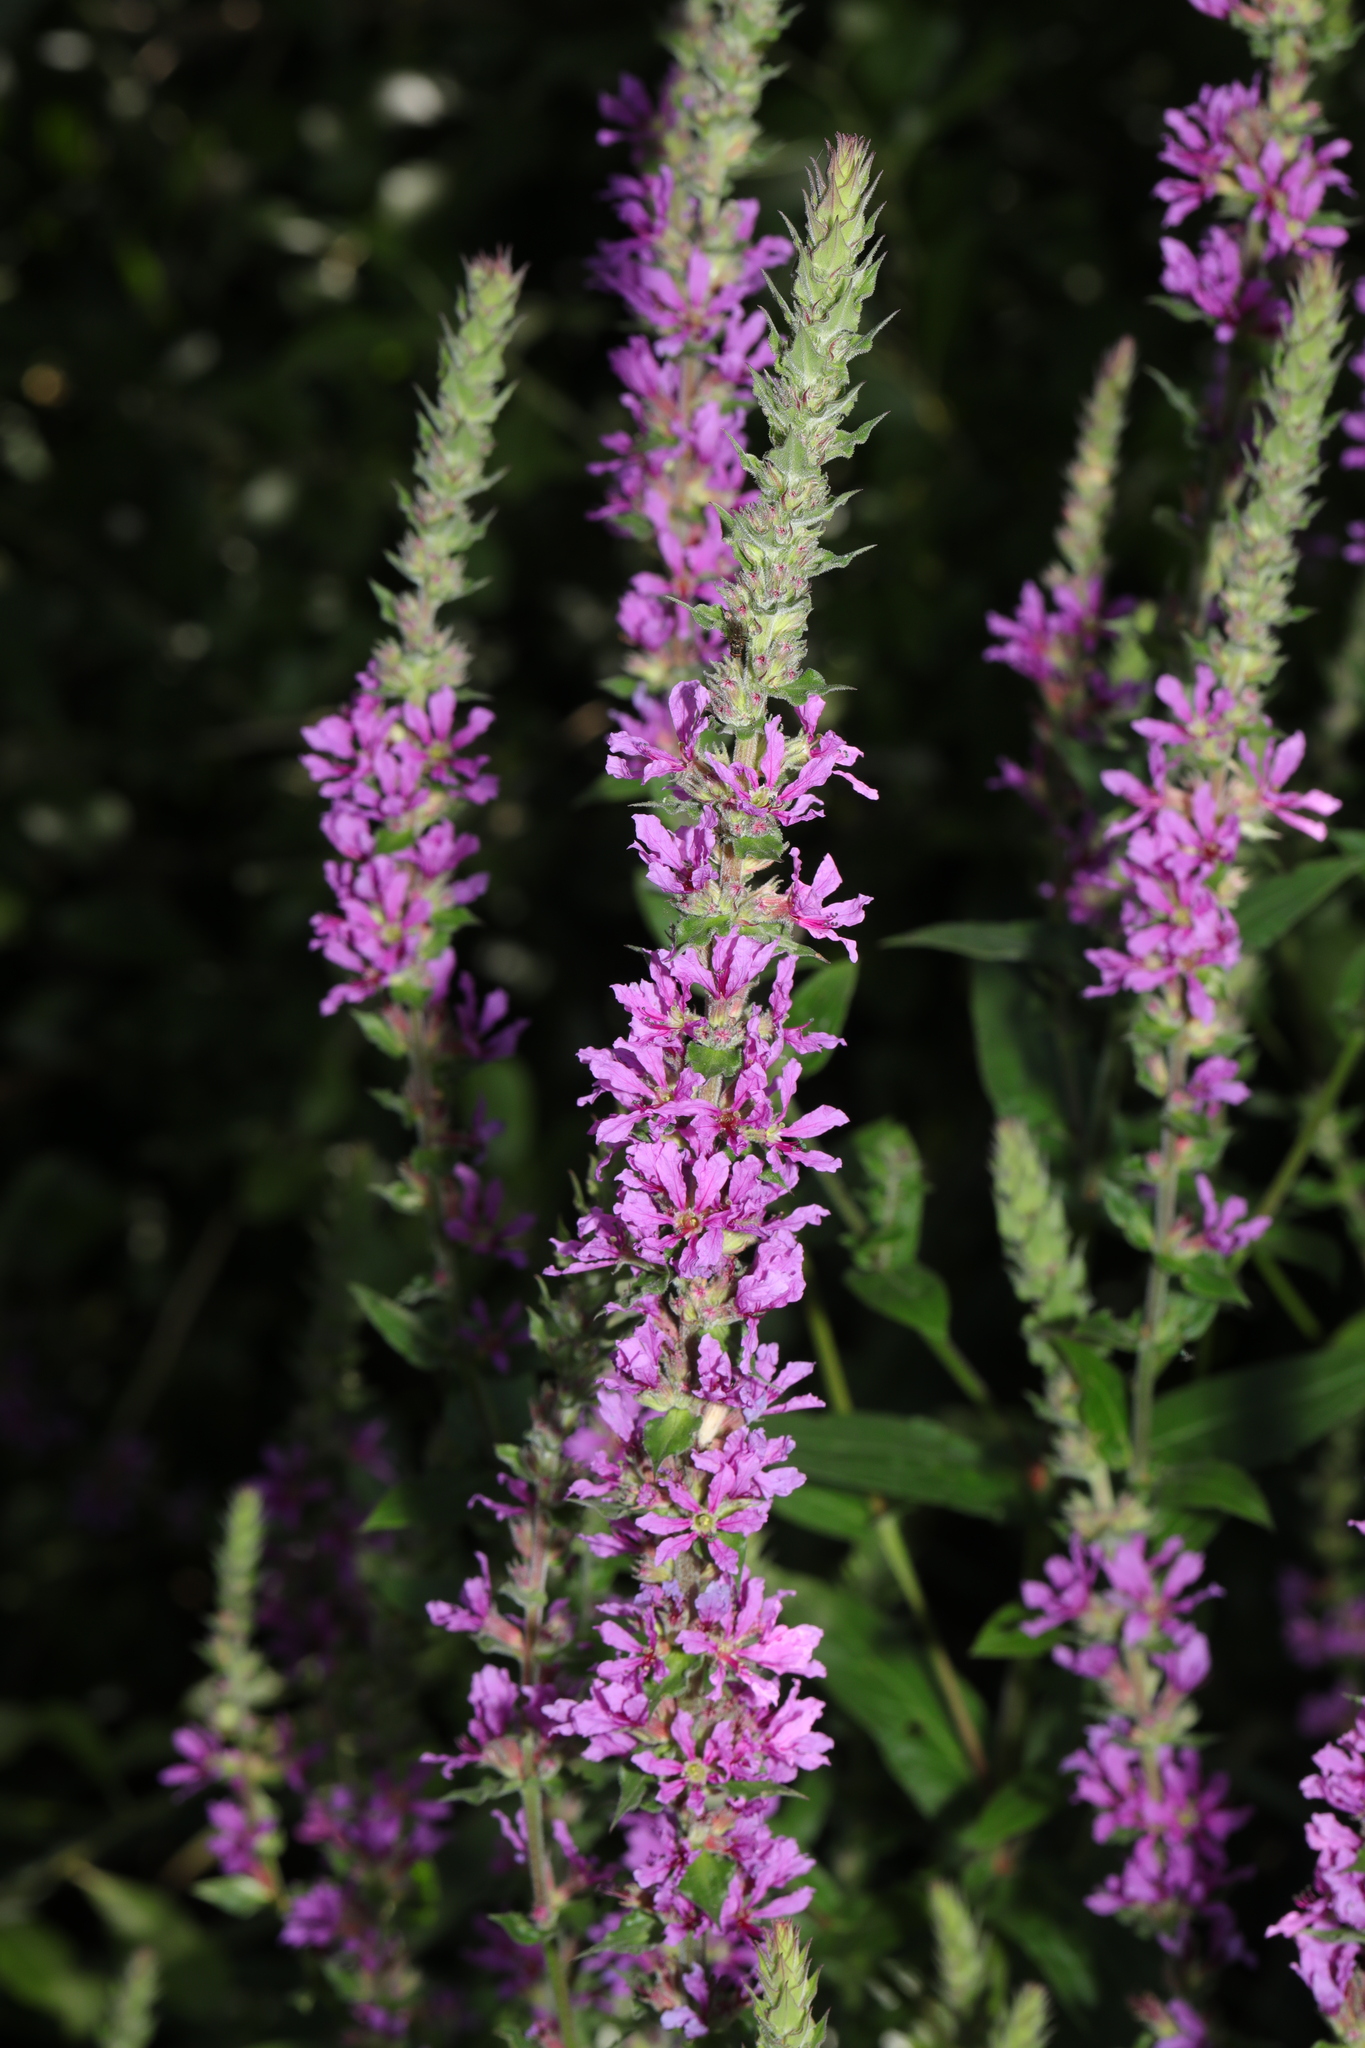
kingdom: Plantae
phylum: Tracheophyta
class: Magnoliopsida
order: Myrtales
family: Lythraceae
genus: Lythrum
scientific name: Lythrum salicaria
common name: Purple loosestrife
